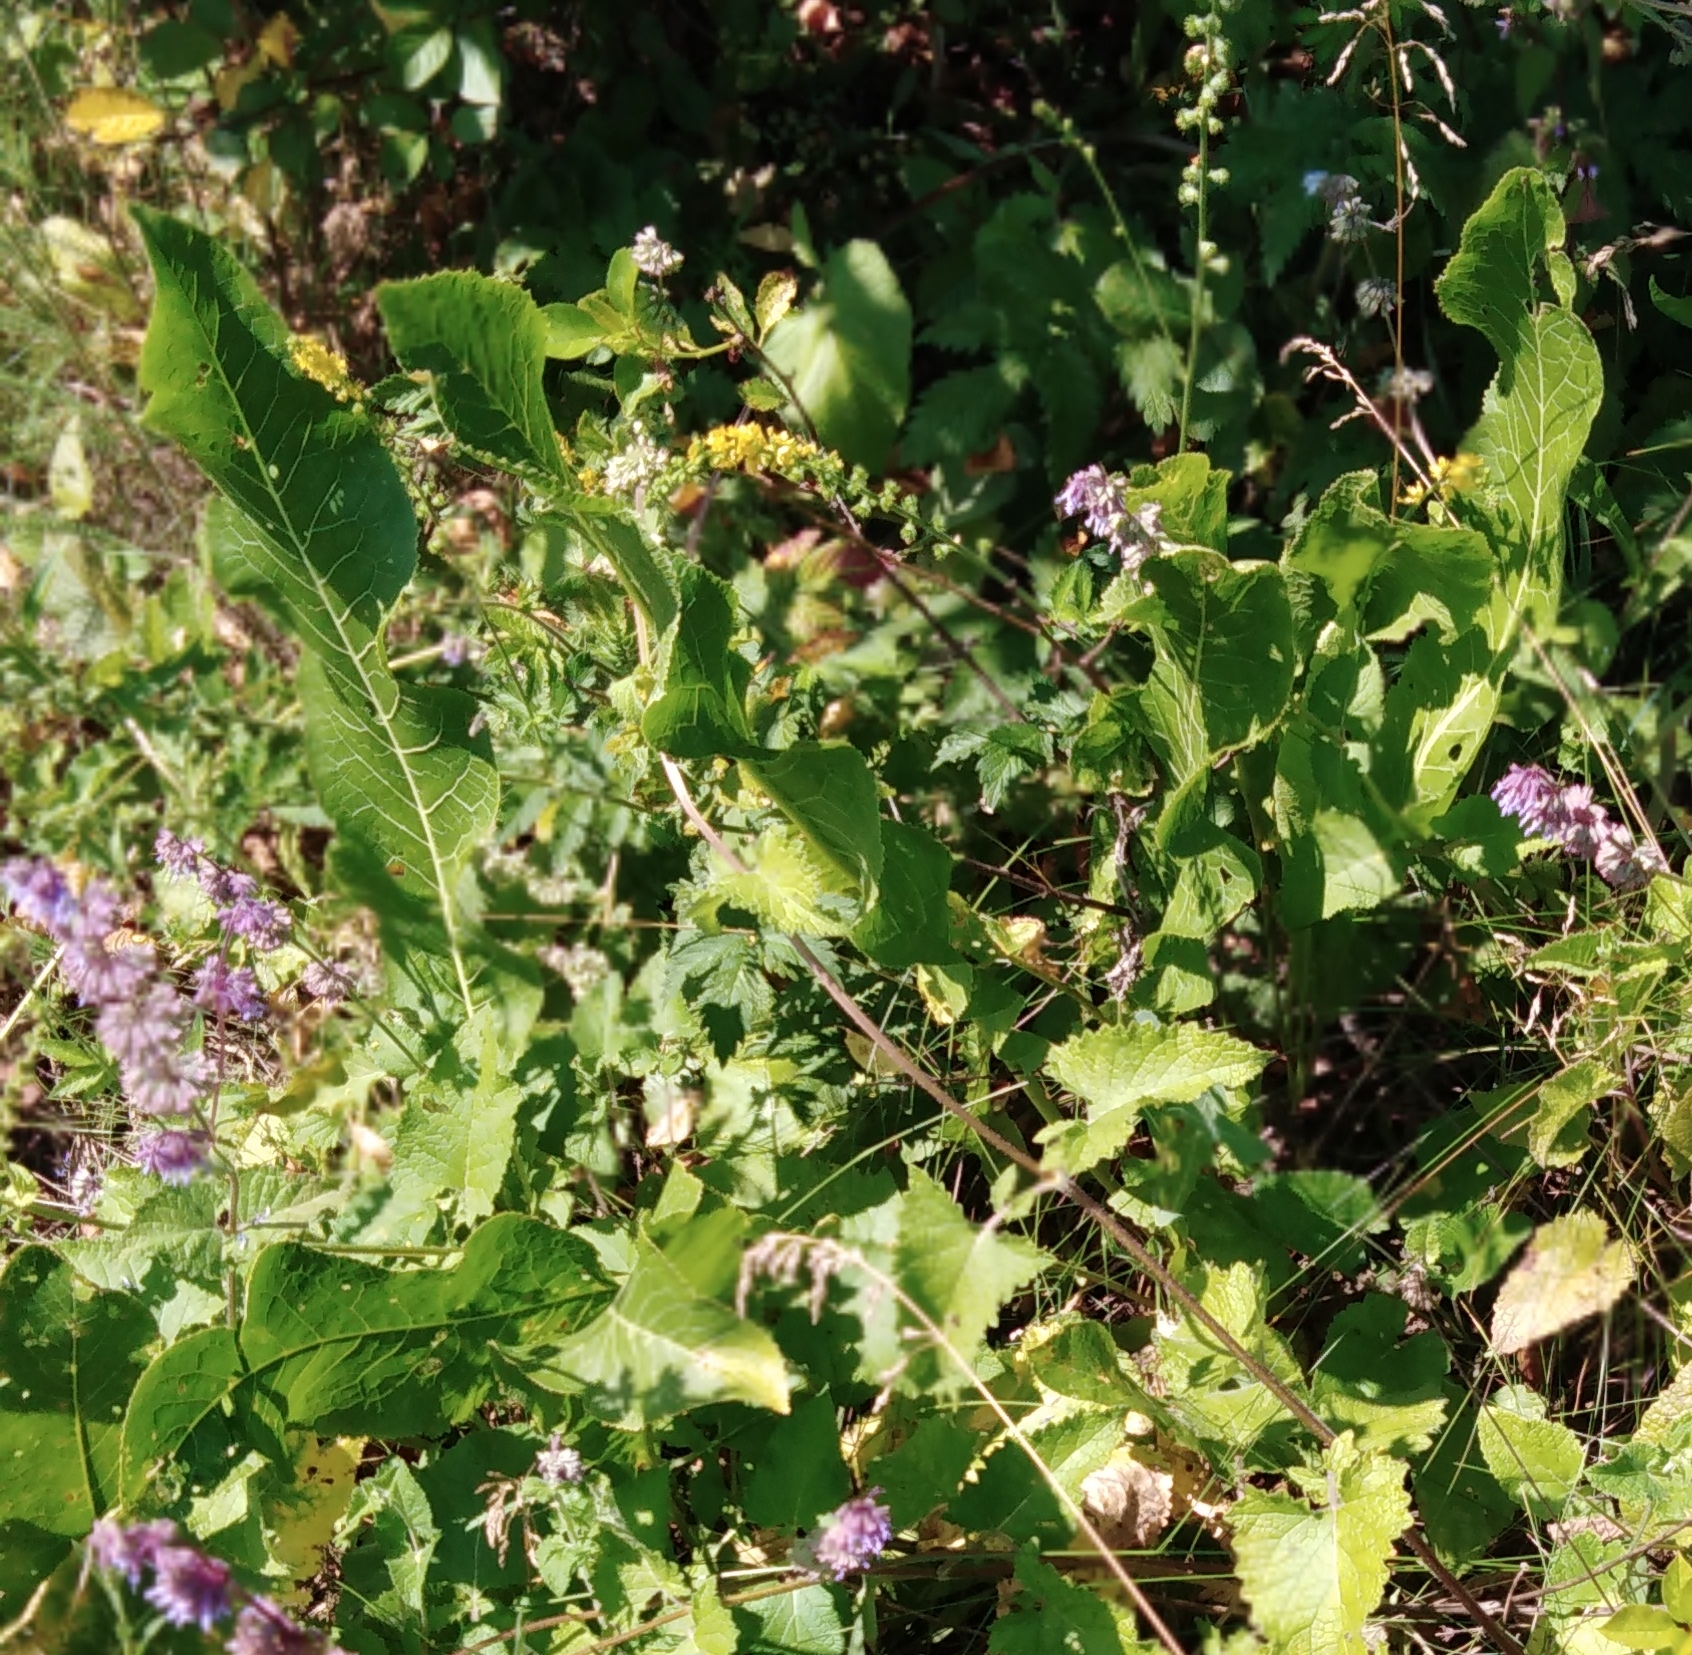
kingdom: Plantae
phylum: Tracheophyta
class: Magnoliopsida
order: Brassicales
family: Brassicaceae
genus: Armoracia
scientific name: Armoracia rusticana
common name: Horseradish
